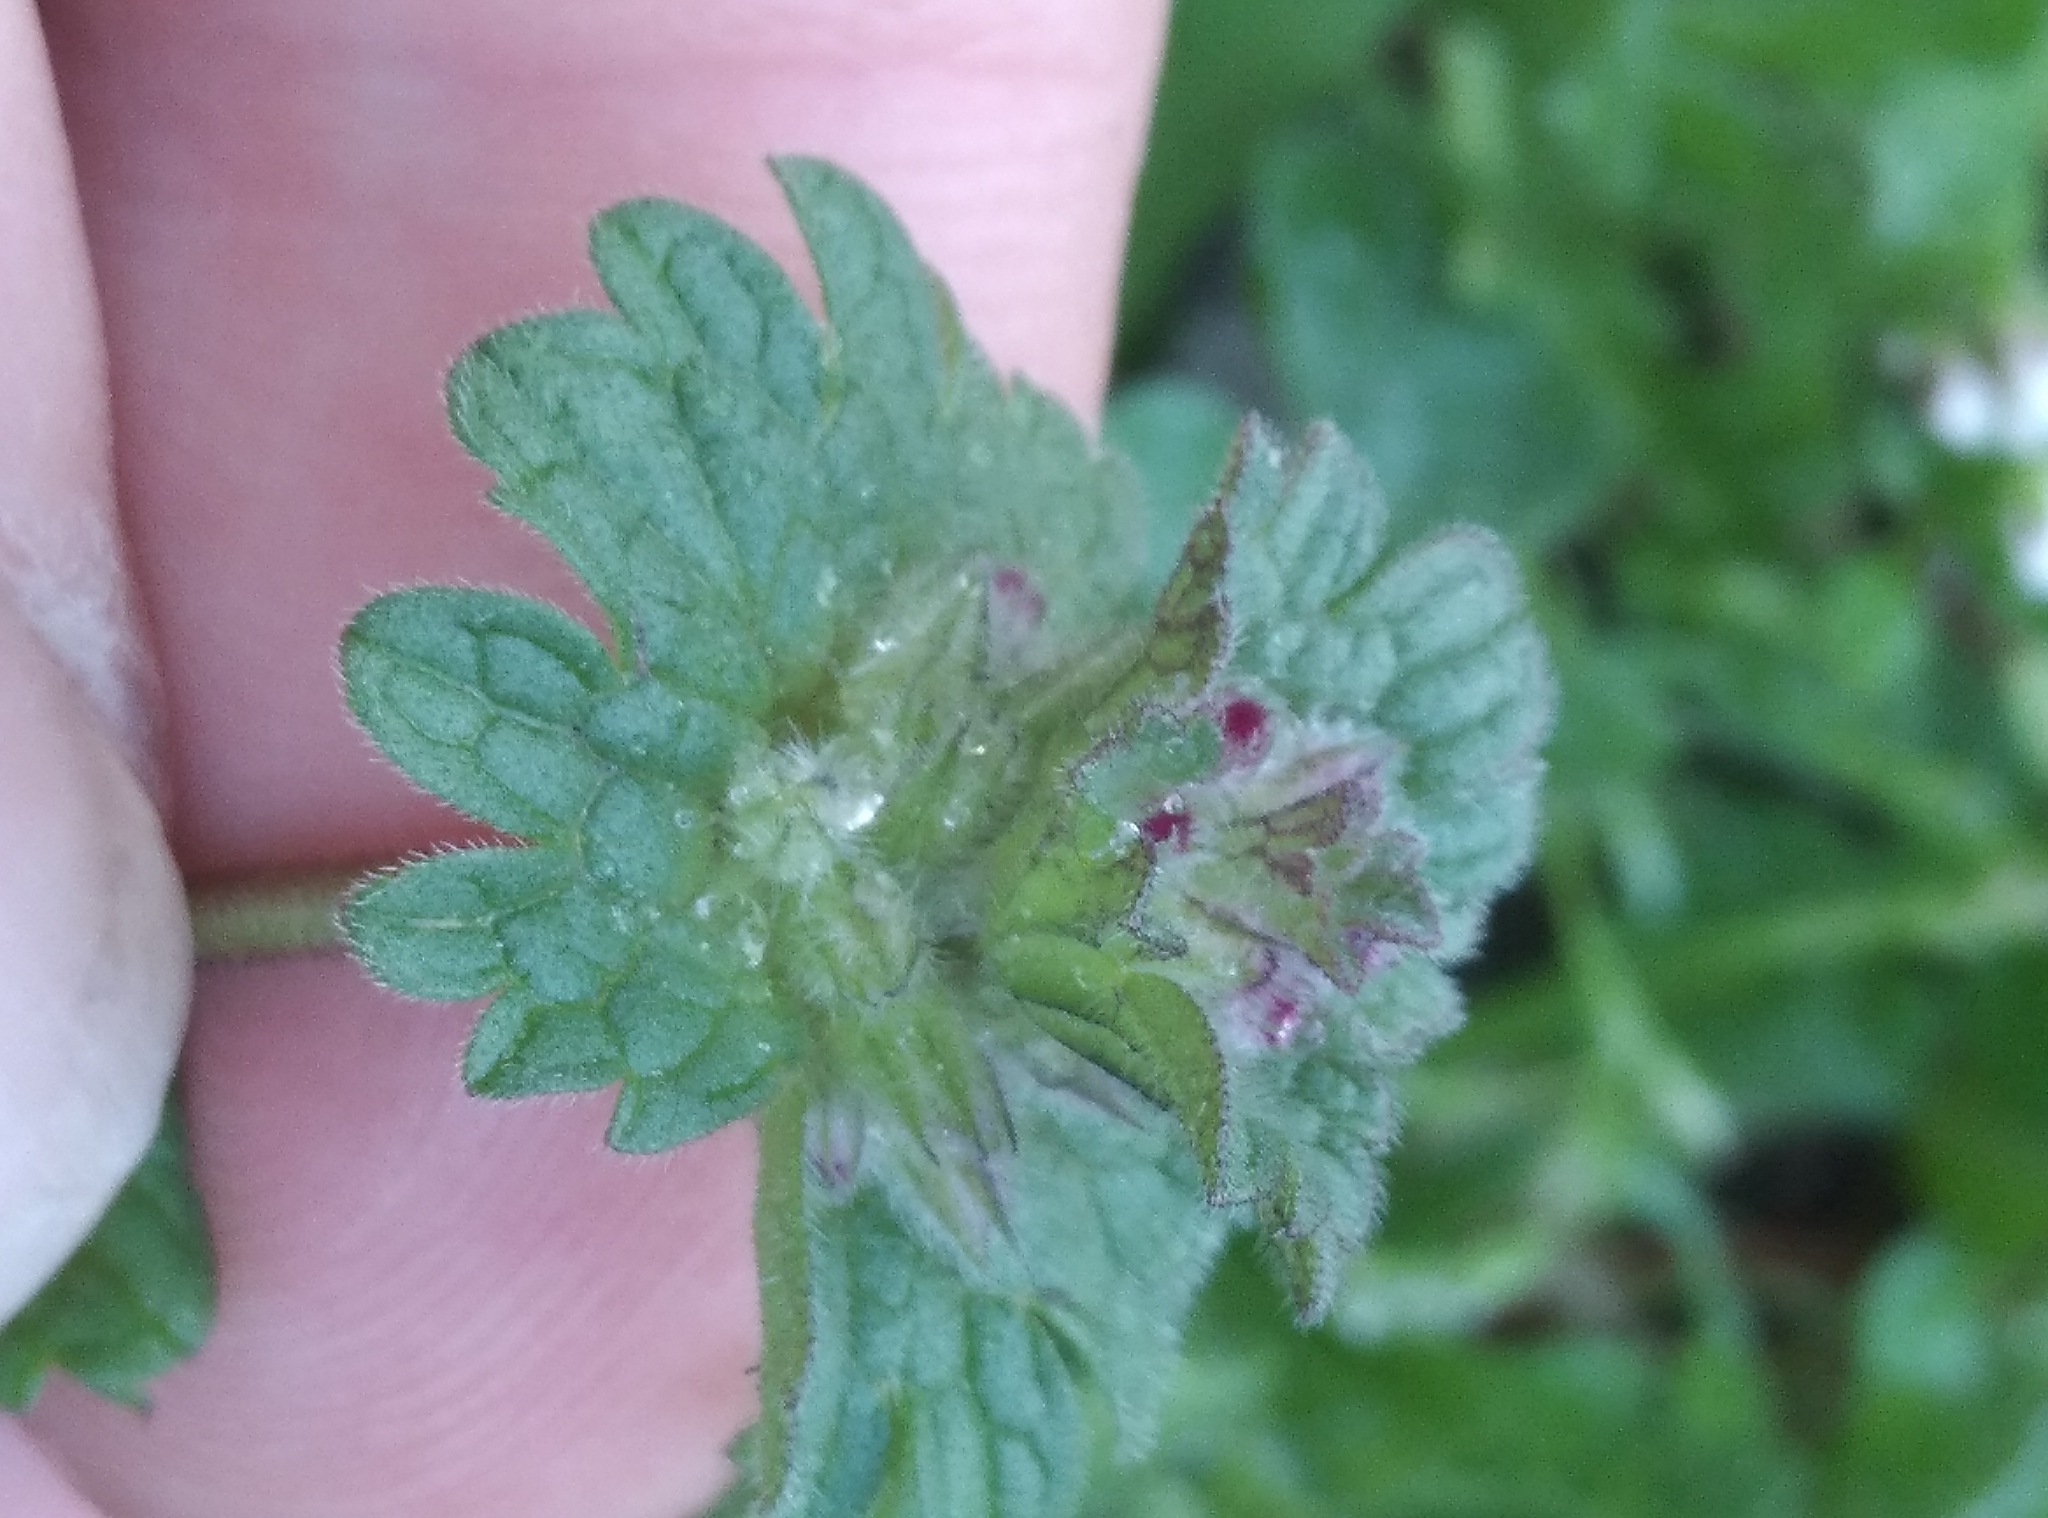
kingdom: Plantae
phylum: Tracheophyta
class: Magnoliopsida
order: Lamiales
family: Lamiaceae
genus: Lamium
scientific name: Lamium amplexicaule
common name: Henbit dead-nettle
